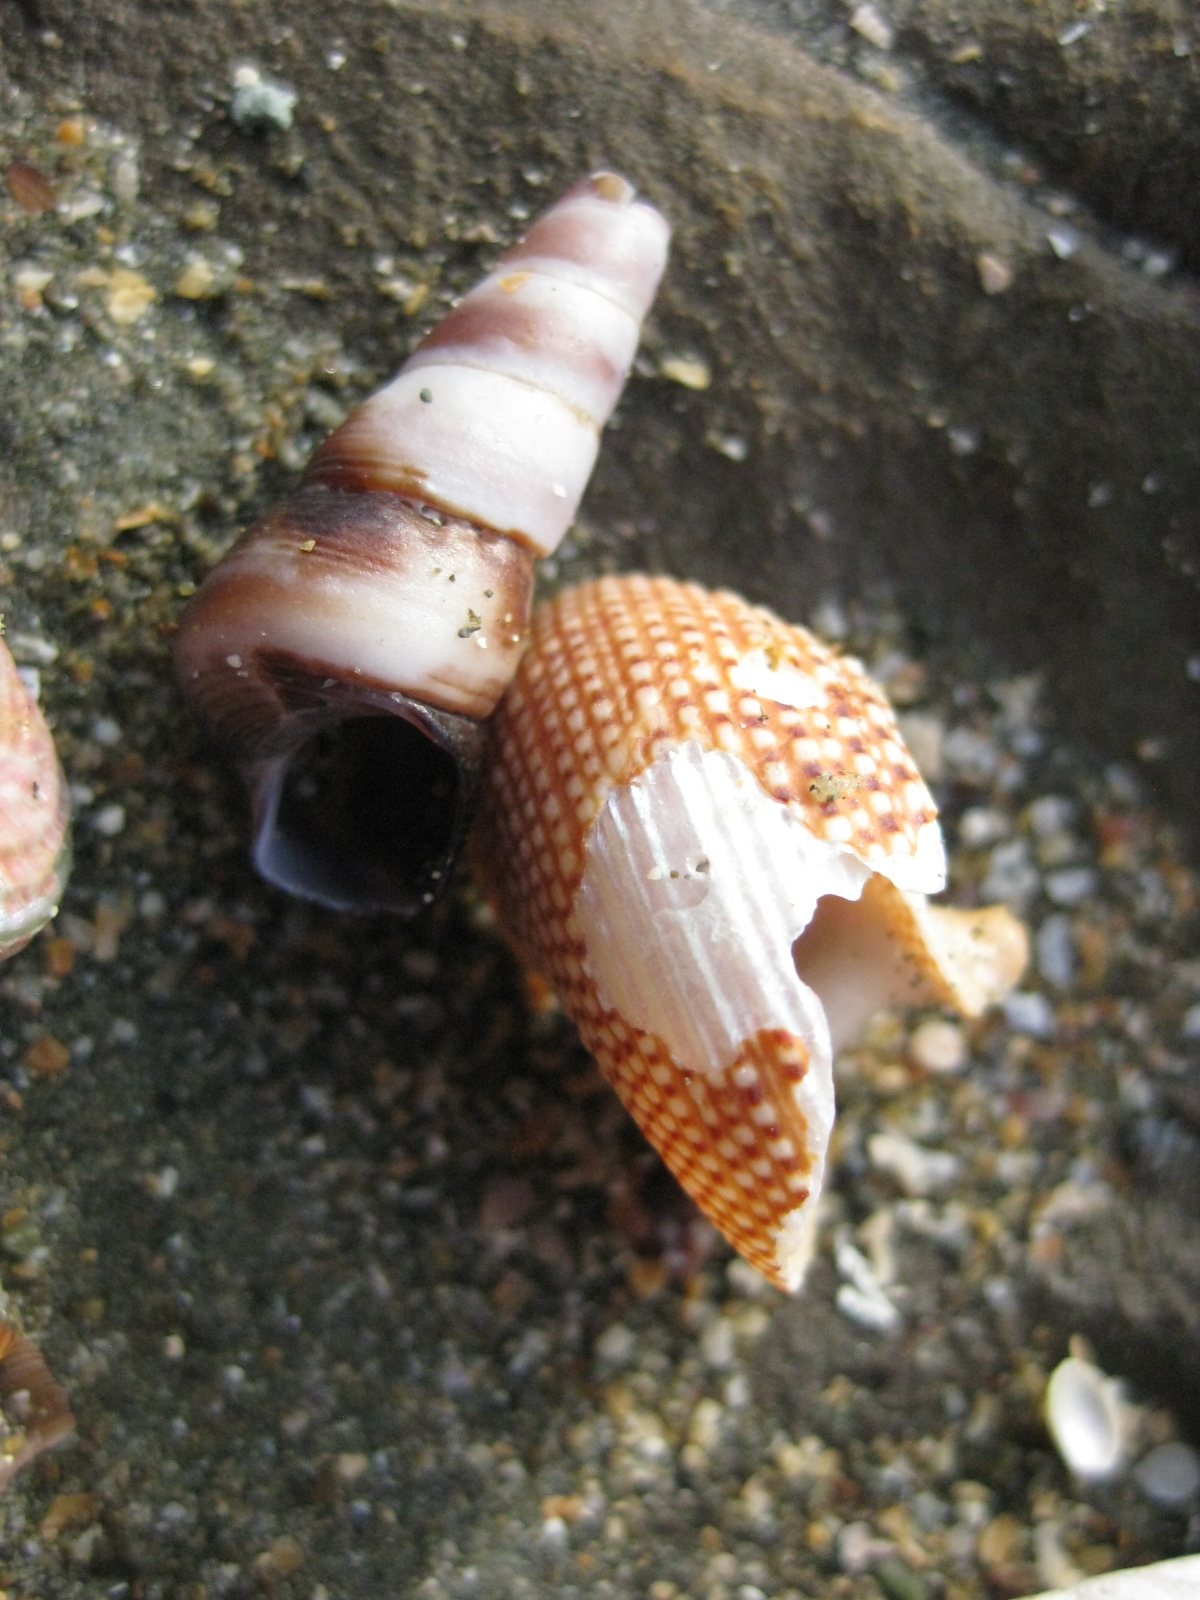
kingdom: Animalia
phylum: Mollusca
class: Gastropoda
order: Trochida
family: Calliostomatidae
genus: Maurea
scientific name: Maurea punctulata
